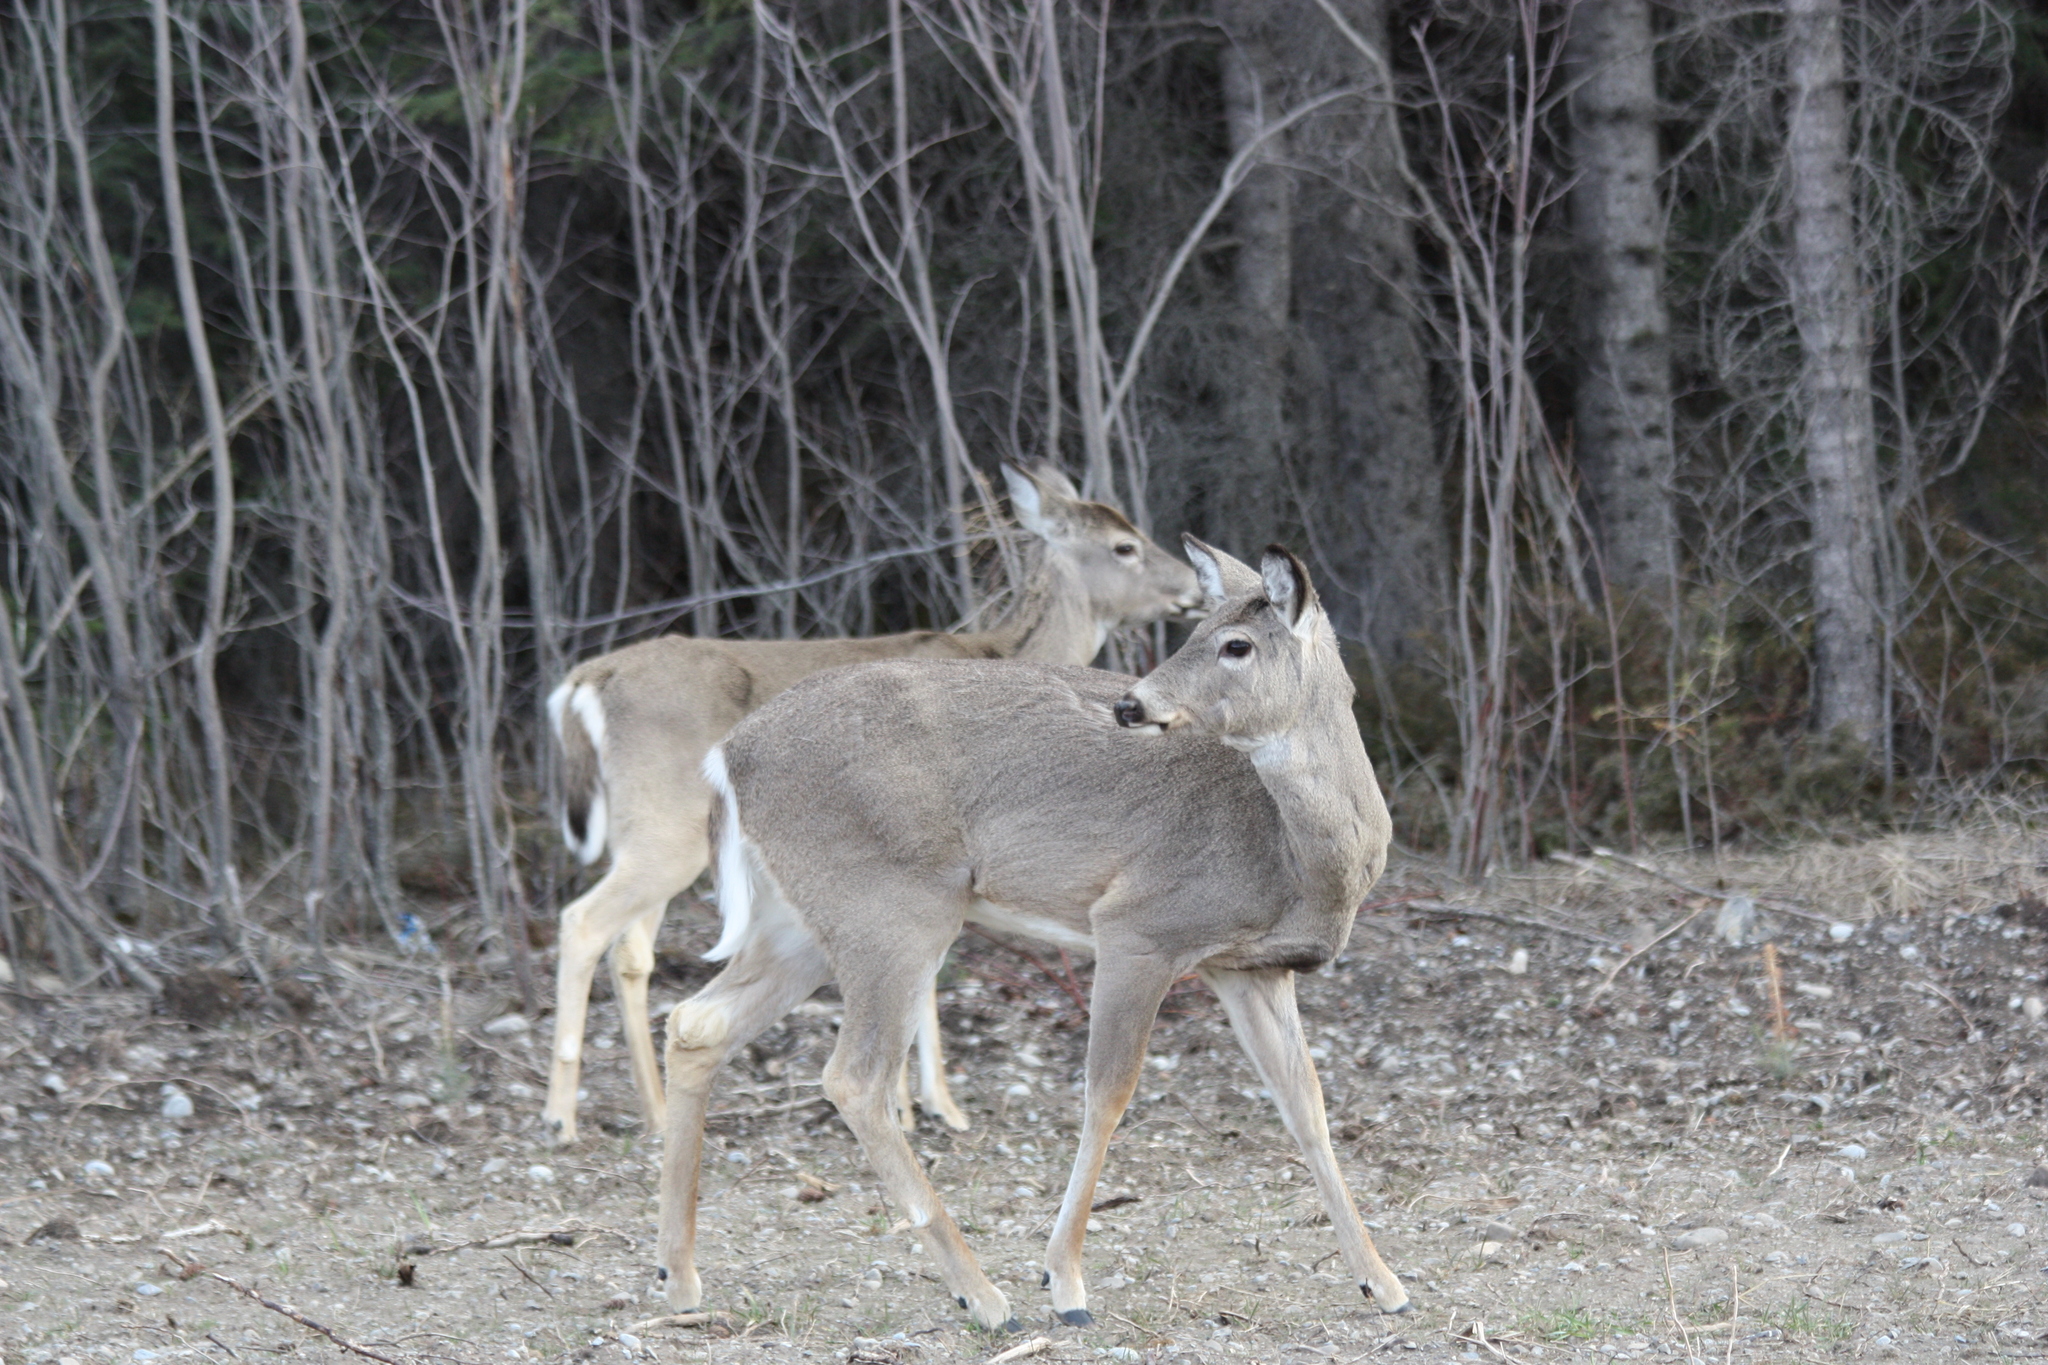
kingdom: Animalia
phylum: Chordata
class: Mammalia
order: Artiodactyla
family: Cervidae
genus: Odocoileus
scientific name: Odocoileus virginianus
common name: White-tailed deer
